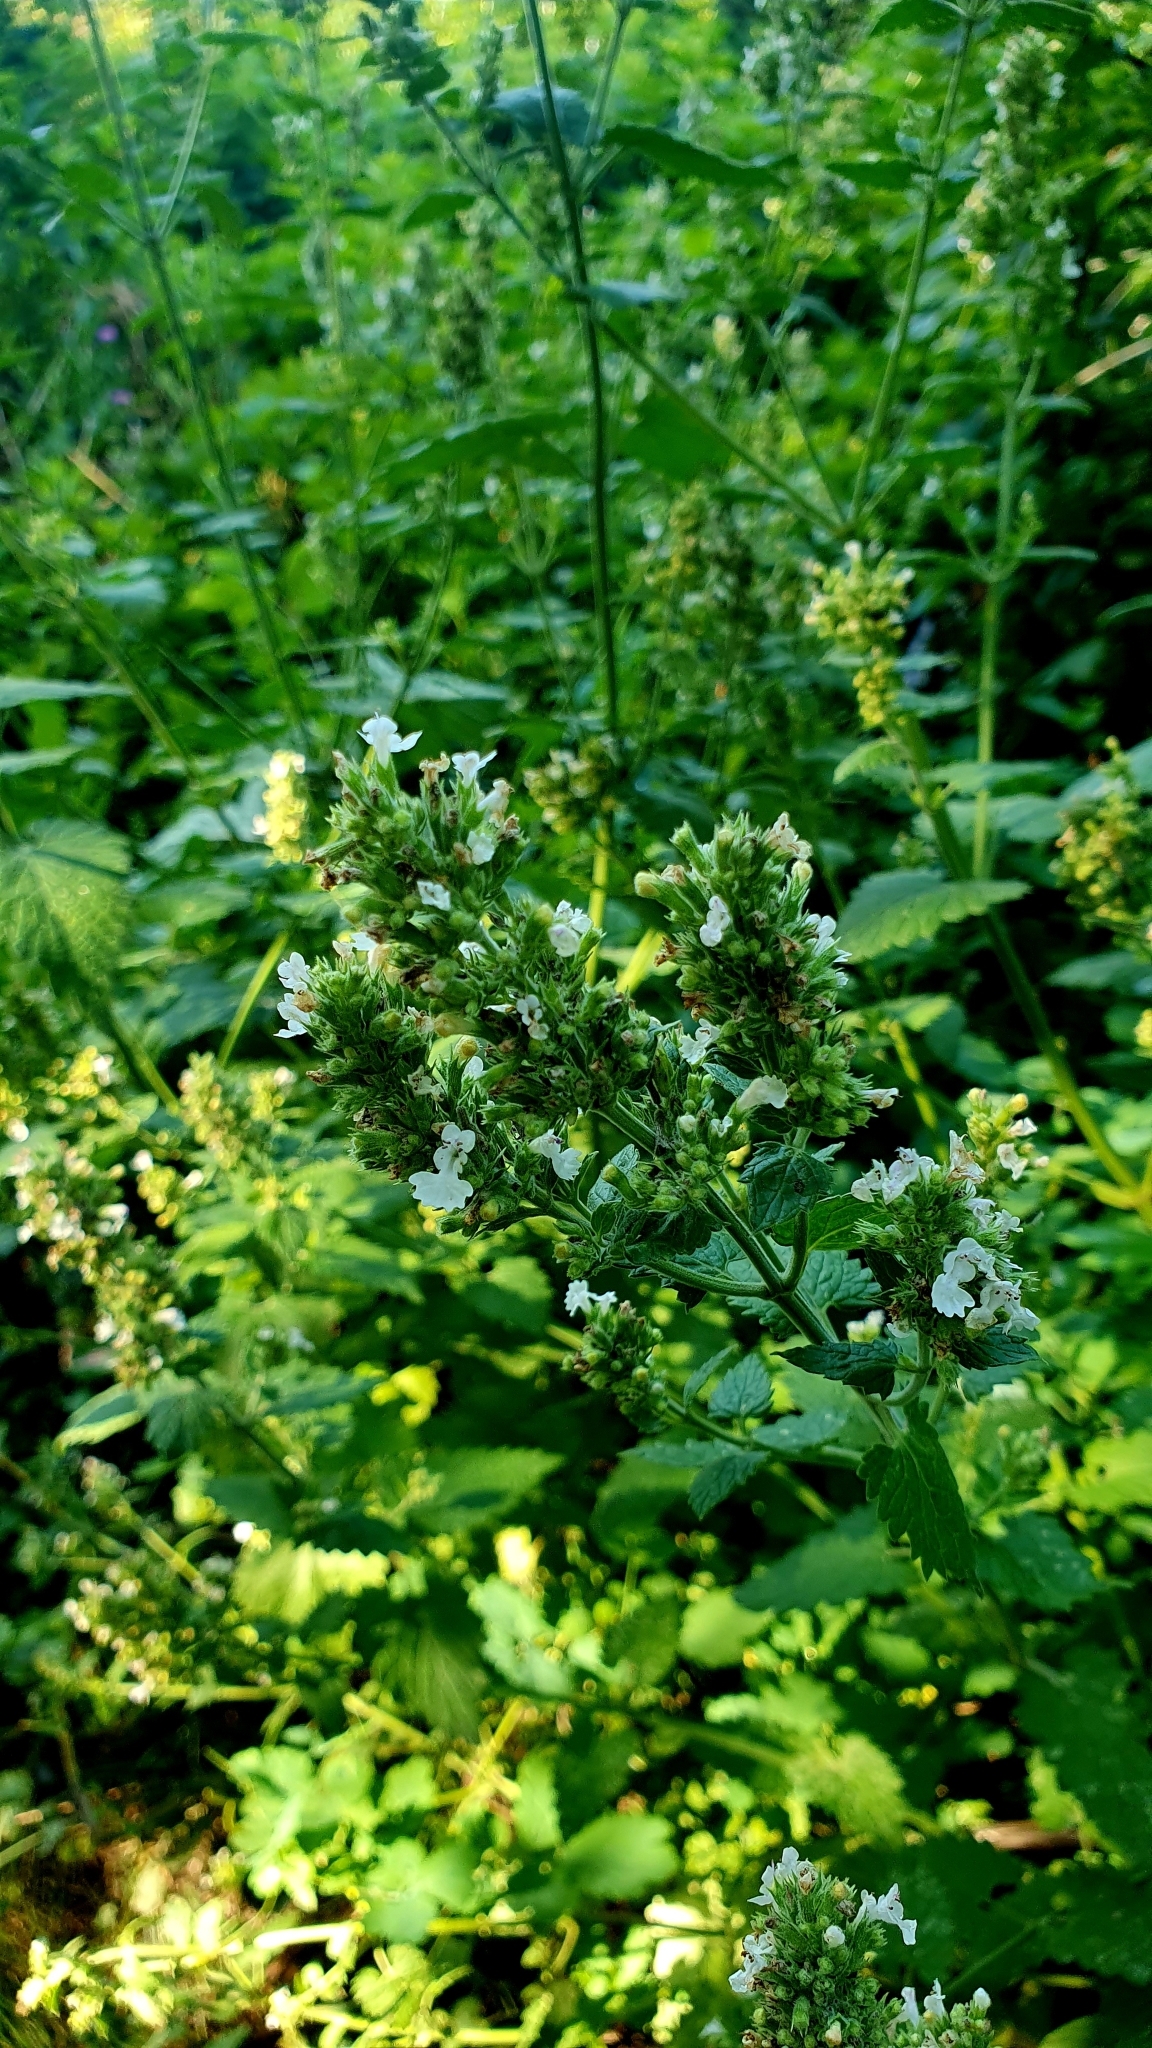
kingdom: Plantae
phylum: Tracheophyta
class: Magnoliopsida
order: Lamiales
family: Lamiaceae
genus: Nepeta
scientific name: Nepeta cataria
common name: Catnip
